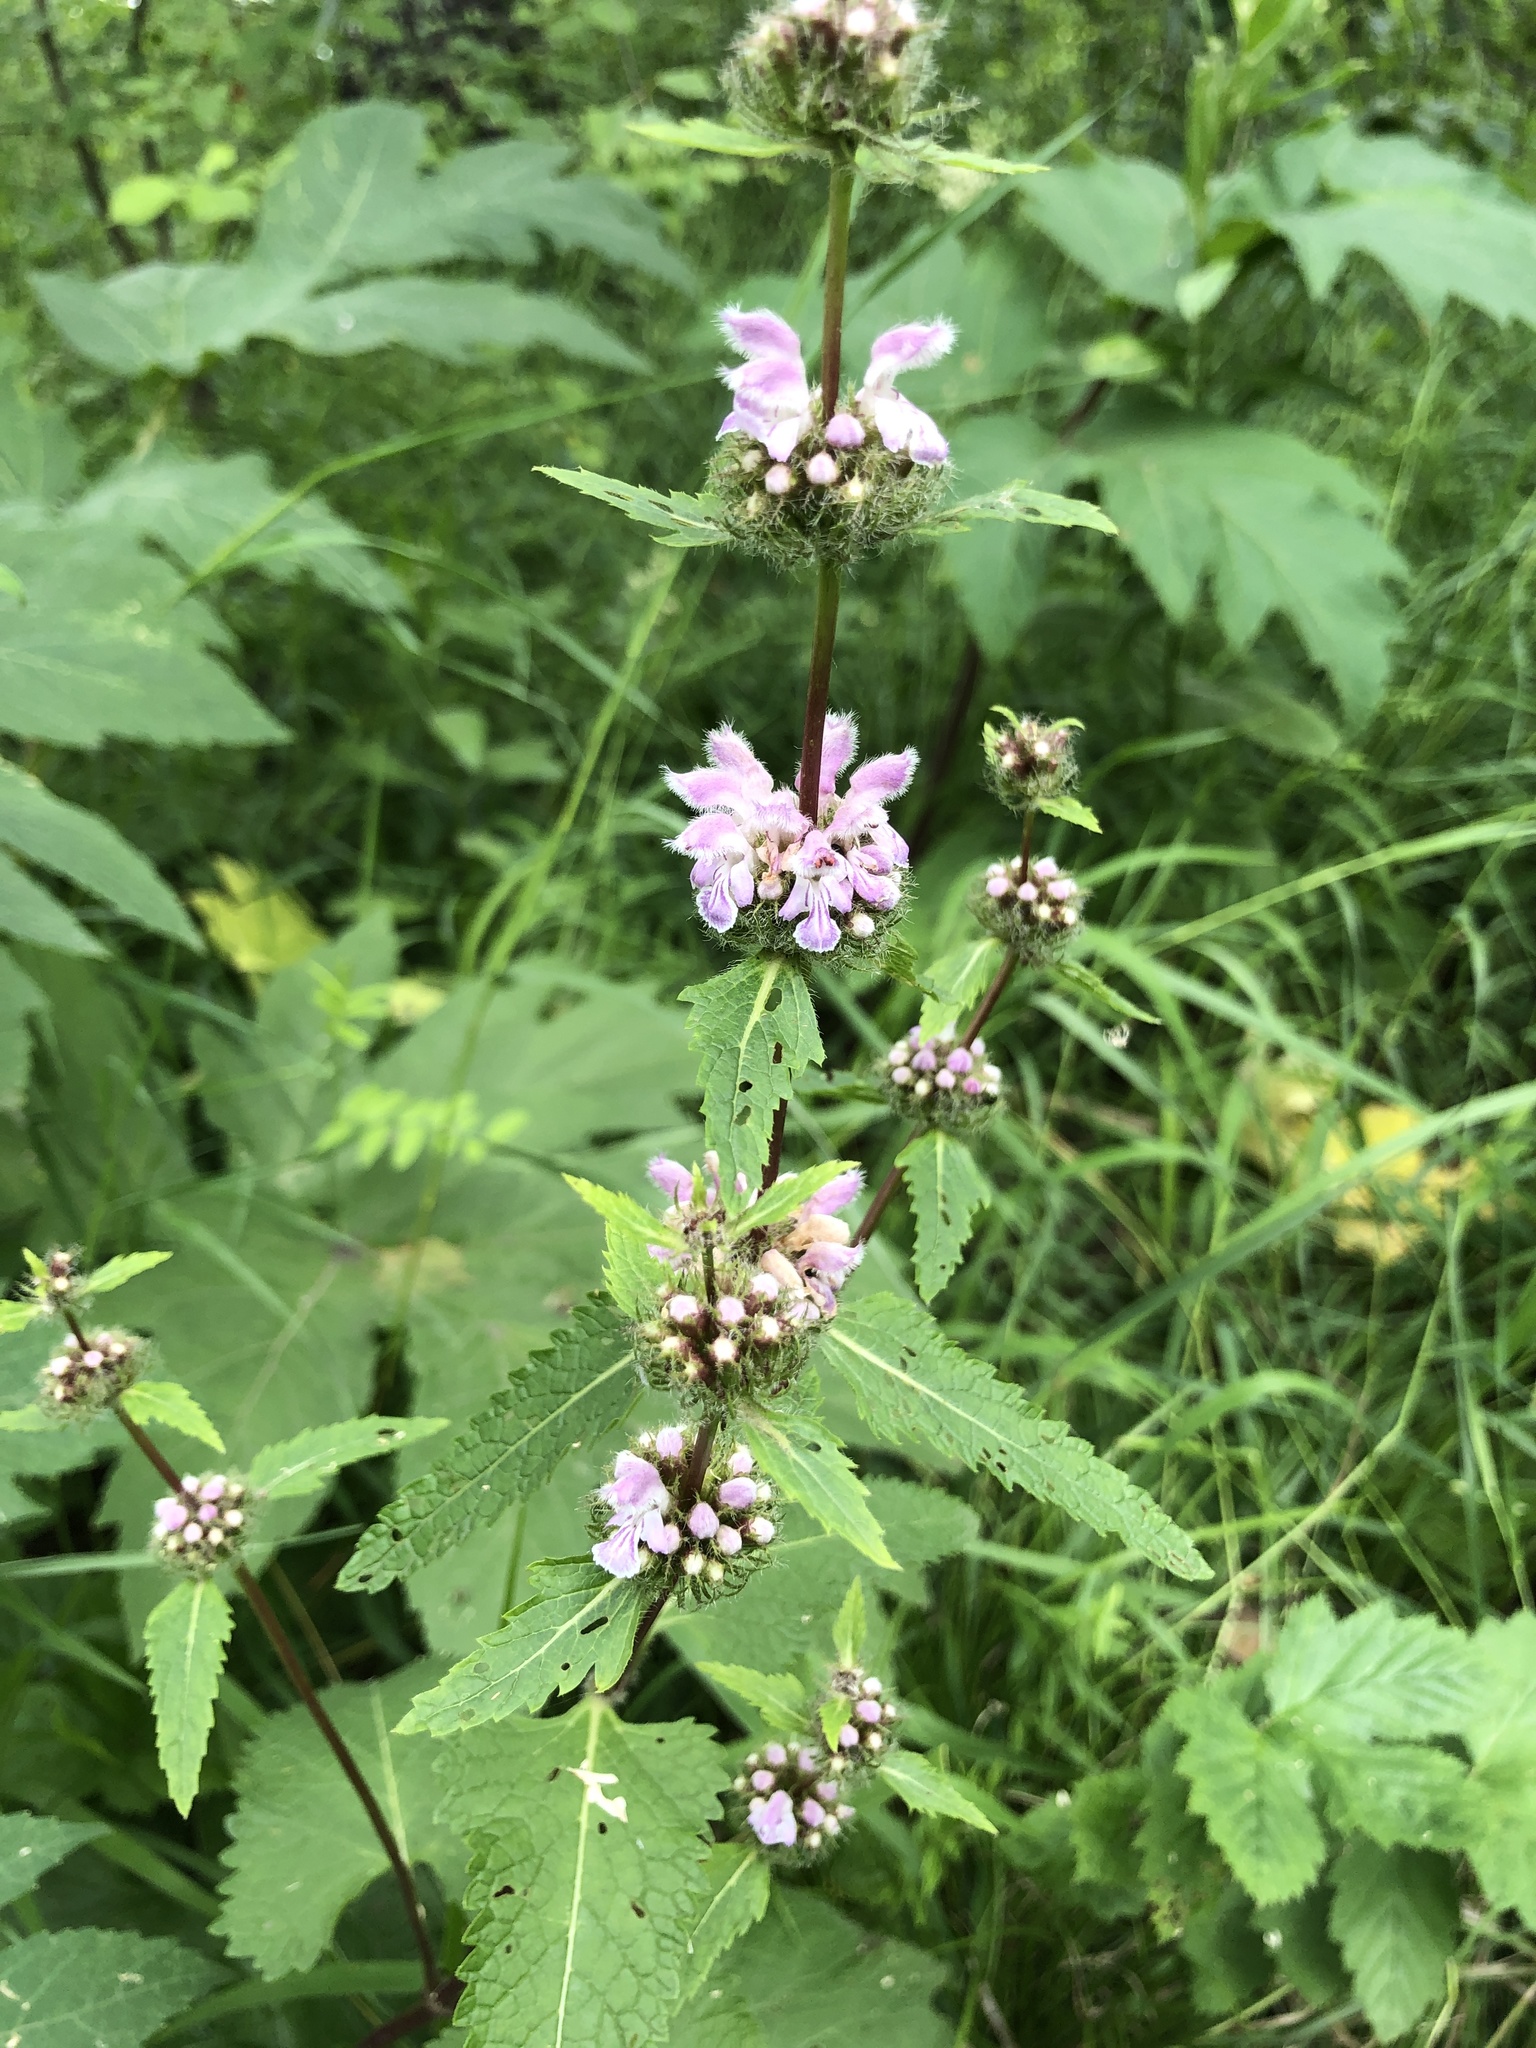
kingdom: Plantae
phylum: Tracheophyta
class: Magnoliopsida
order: Lamiales
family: Lamiaceae
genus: Phlomoides
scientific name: Phlomoides tuberosa
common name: Tuberous jerusalem sage
